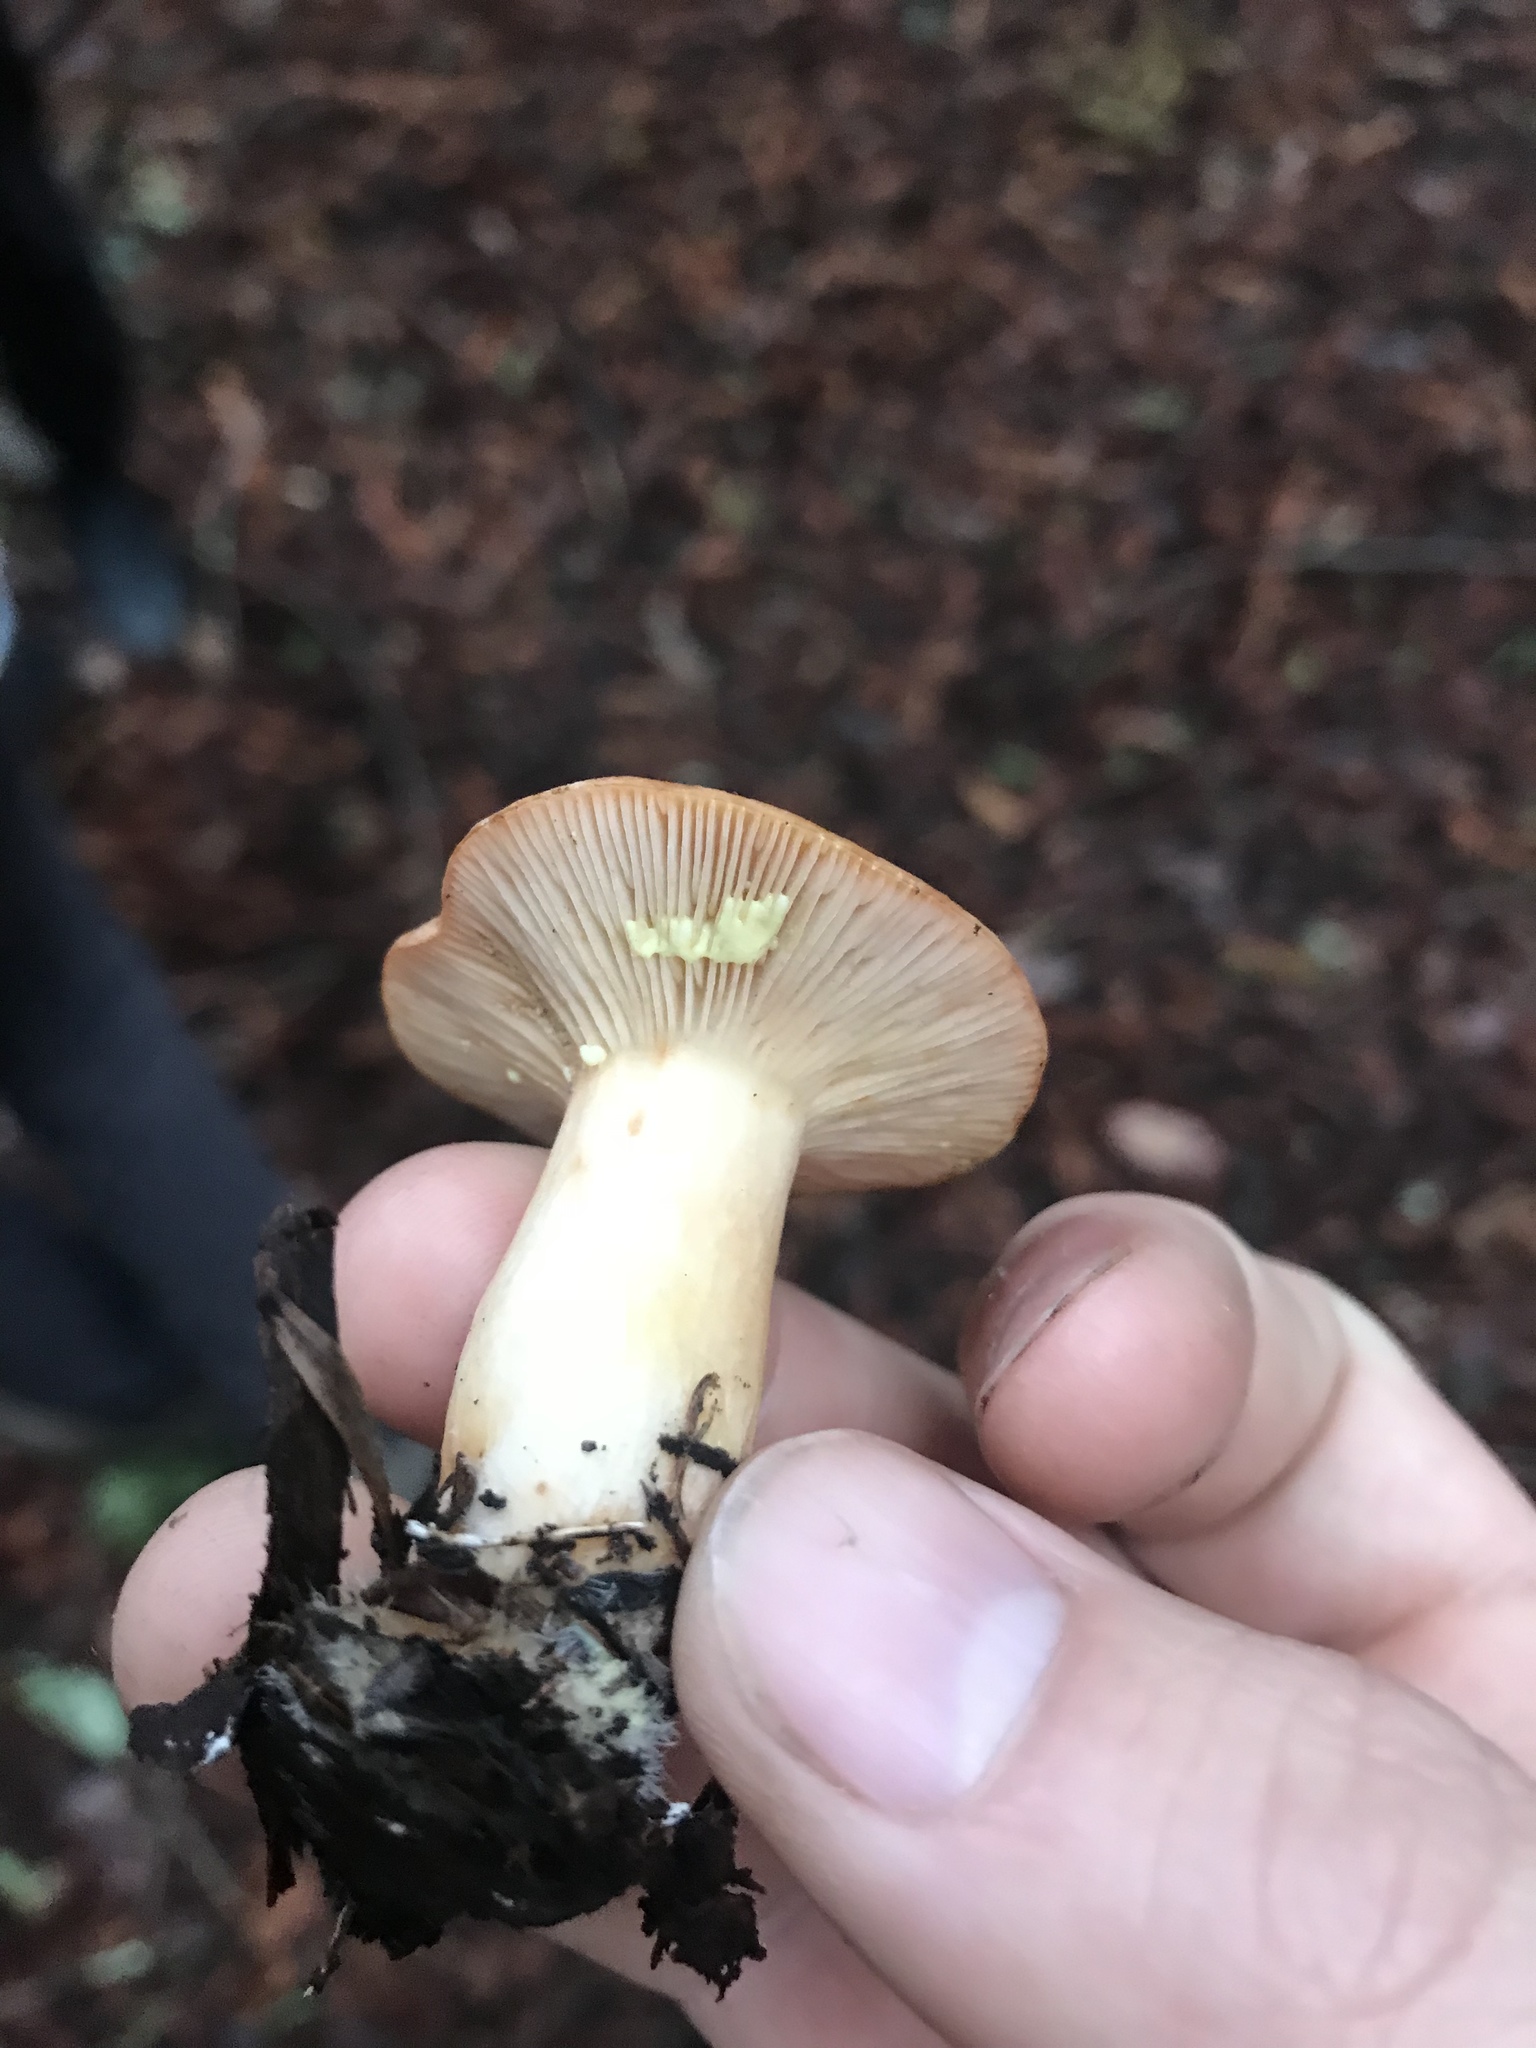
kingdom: Fungi
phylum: Basidiomycota
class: Agaricomycetes
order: Russulales
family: Russulaceae
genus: Lactarius
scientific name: Lactarius xanthogalactus
